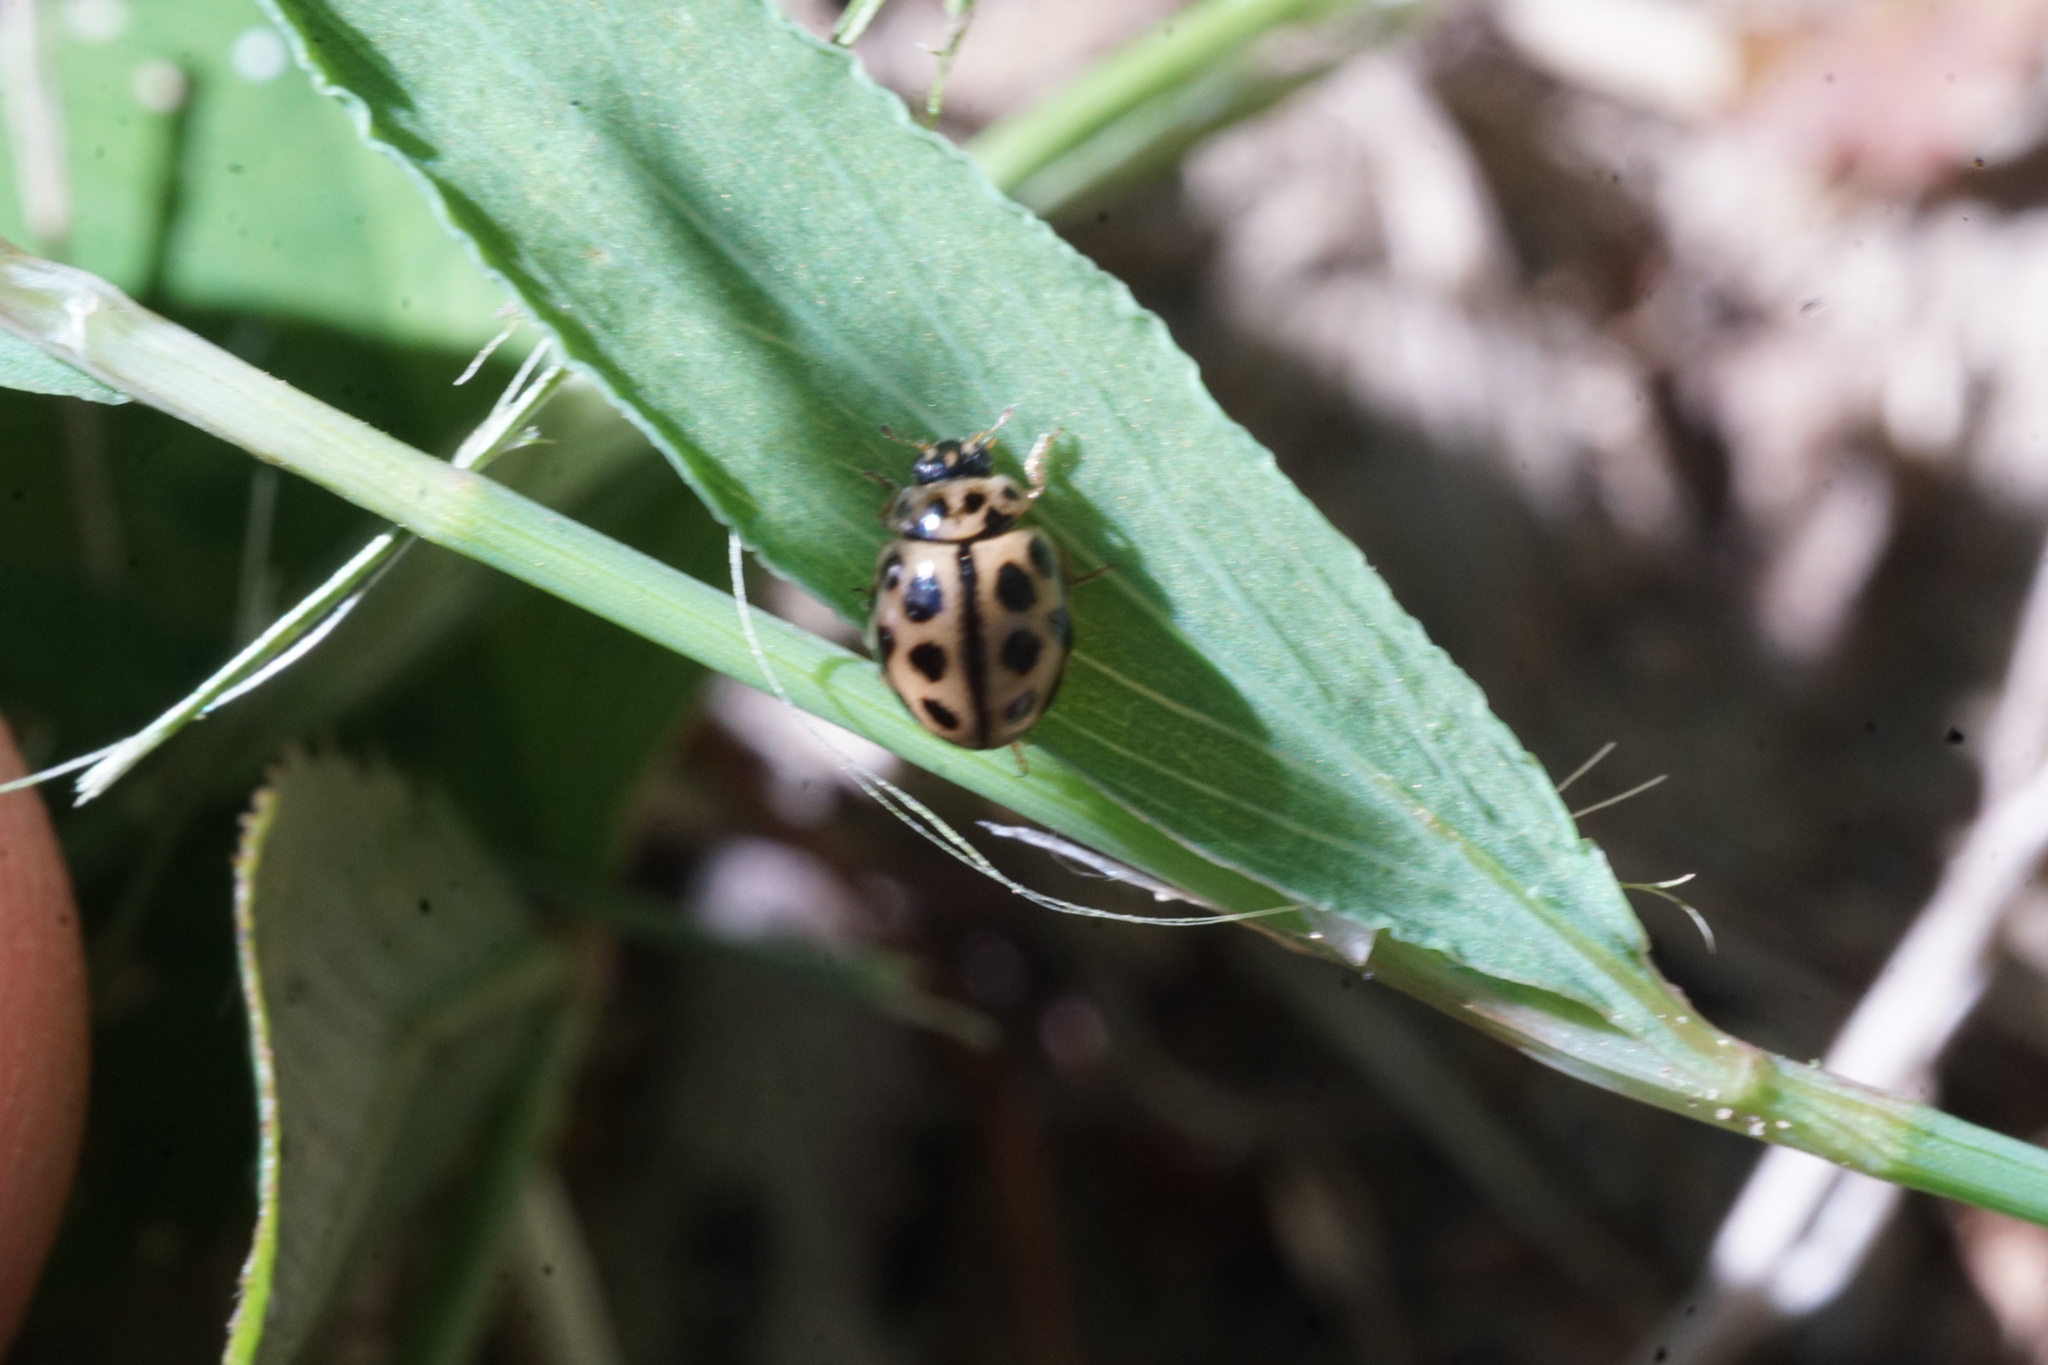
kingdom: Animalia
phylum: Arthropoda
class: Insecta
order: Coleoptera
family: Coccinellidae
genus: Tytthaspis
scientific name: Tytthaspis sedecimpunctata
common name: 16-spot ladybird
